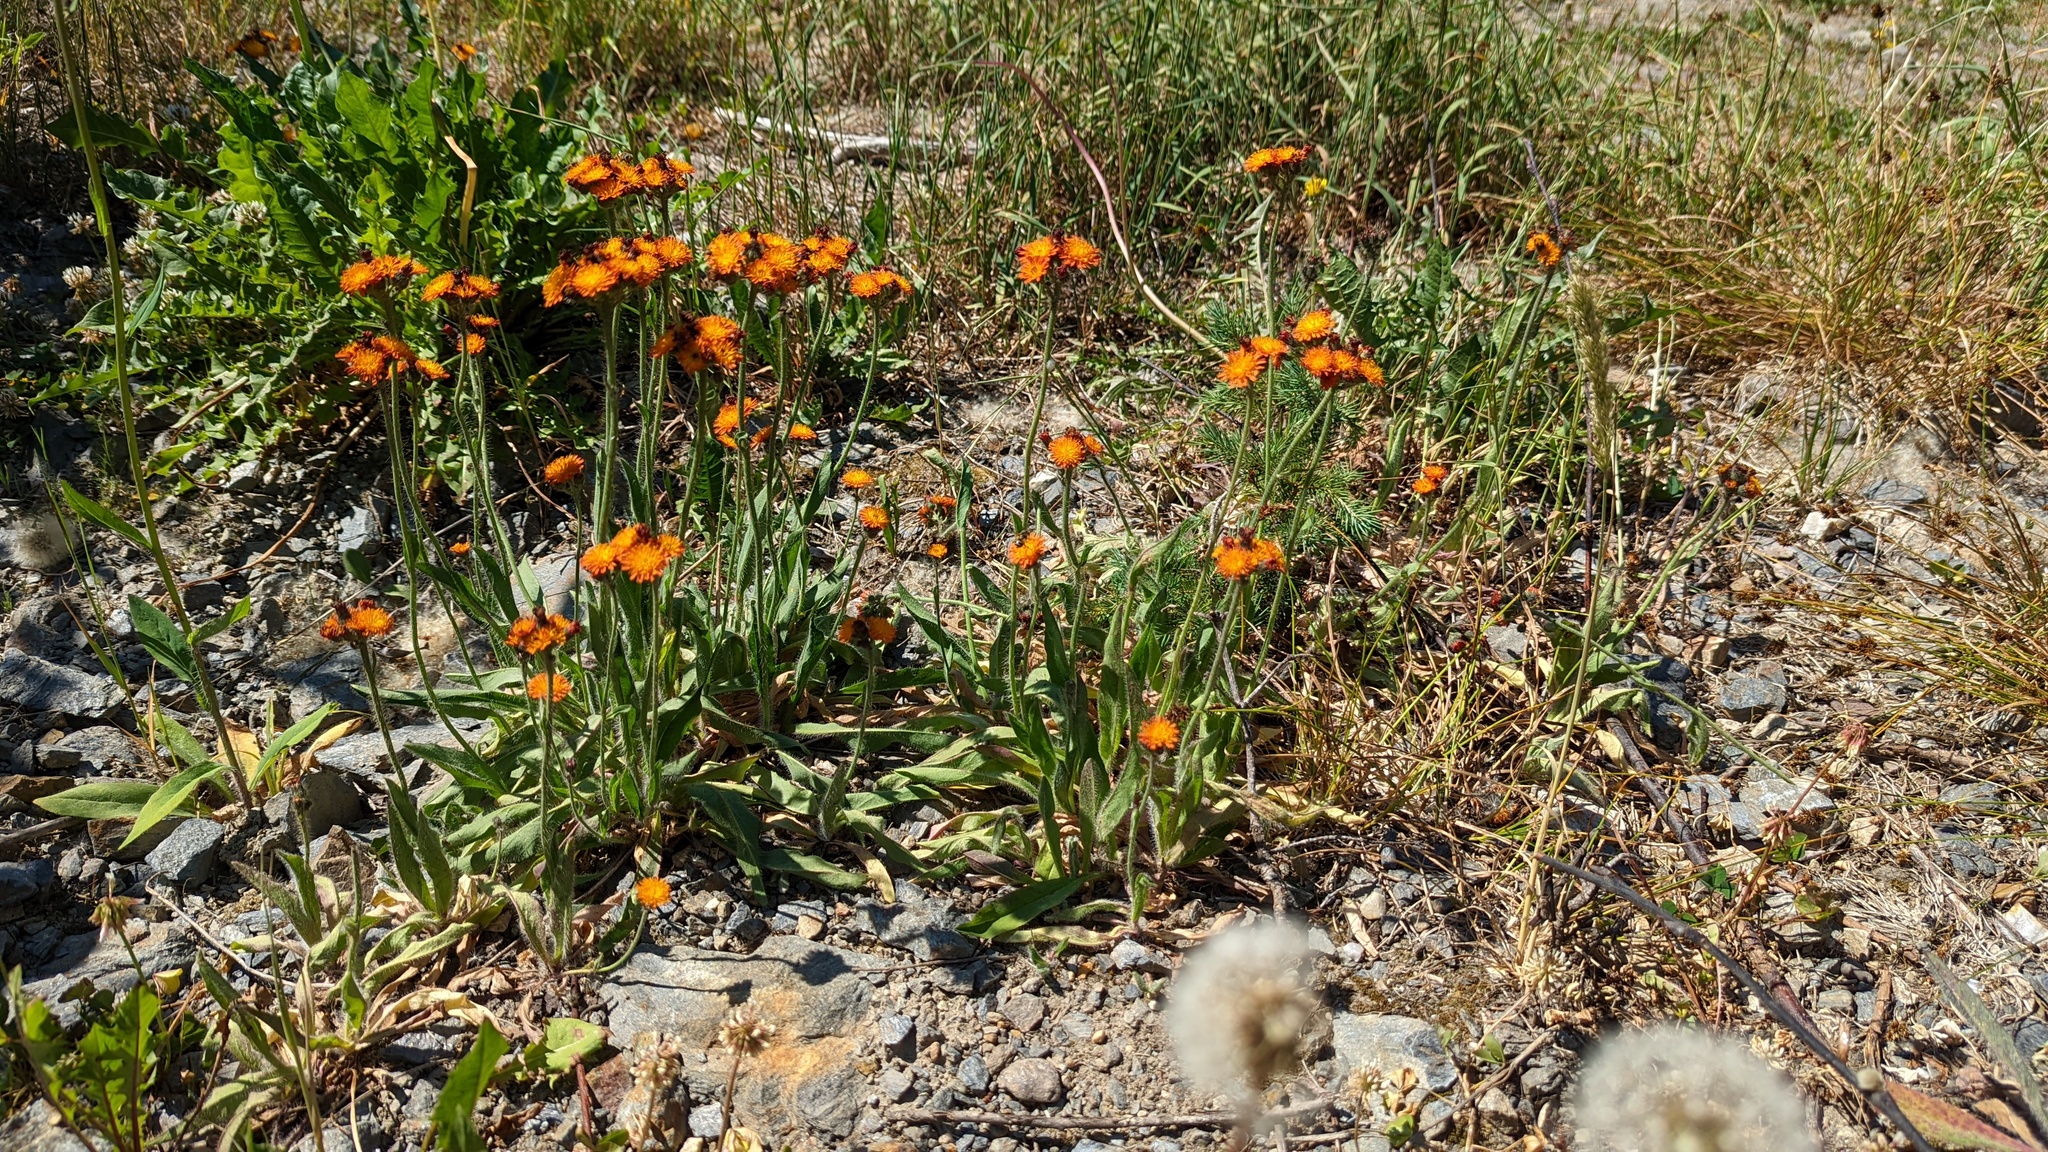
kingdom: Plantae
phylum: Tracheophyta
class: Magnoliopsida
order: Asterales
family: Asteraceae
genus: Pilosella
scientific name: Pilosella aurantiaca
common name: Fox-and-cubs
